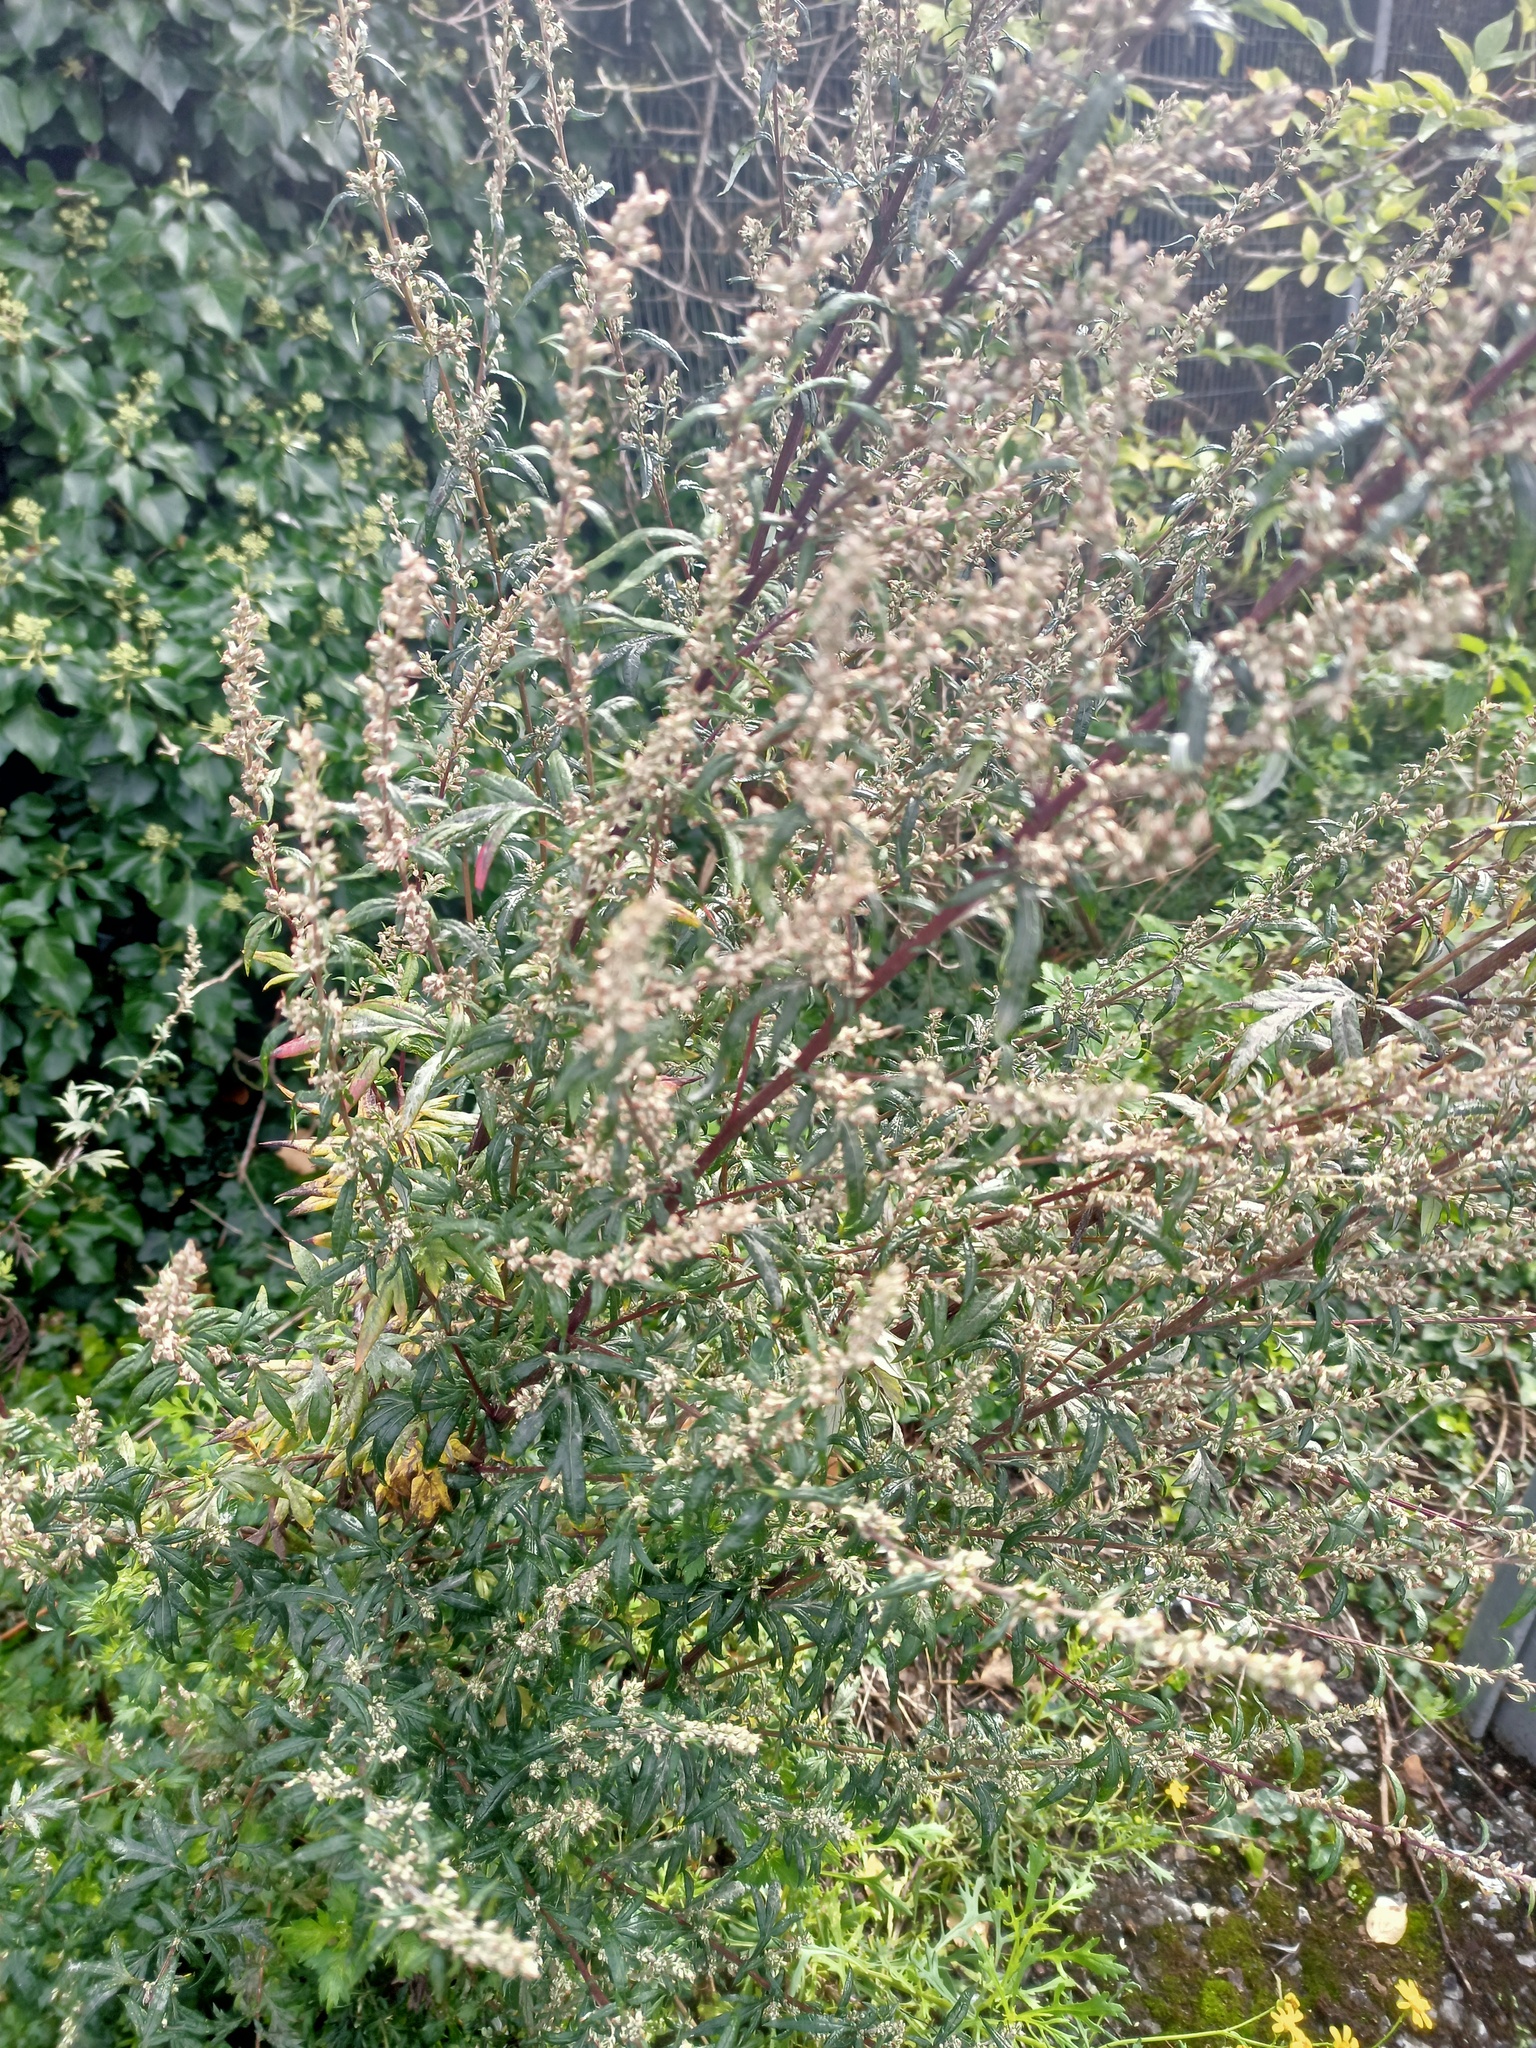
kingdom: Plantae
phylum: Tracheophyta
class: Magnoliopsida
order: Asterales
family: Asteraceae
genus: Artemisia
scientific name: Artemisia vulgaris
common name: Mugwort
